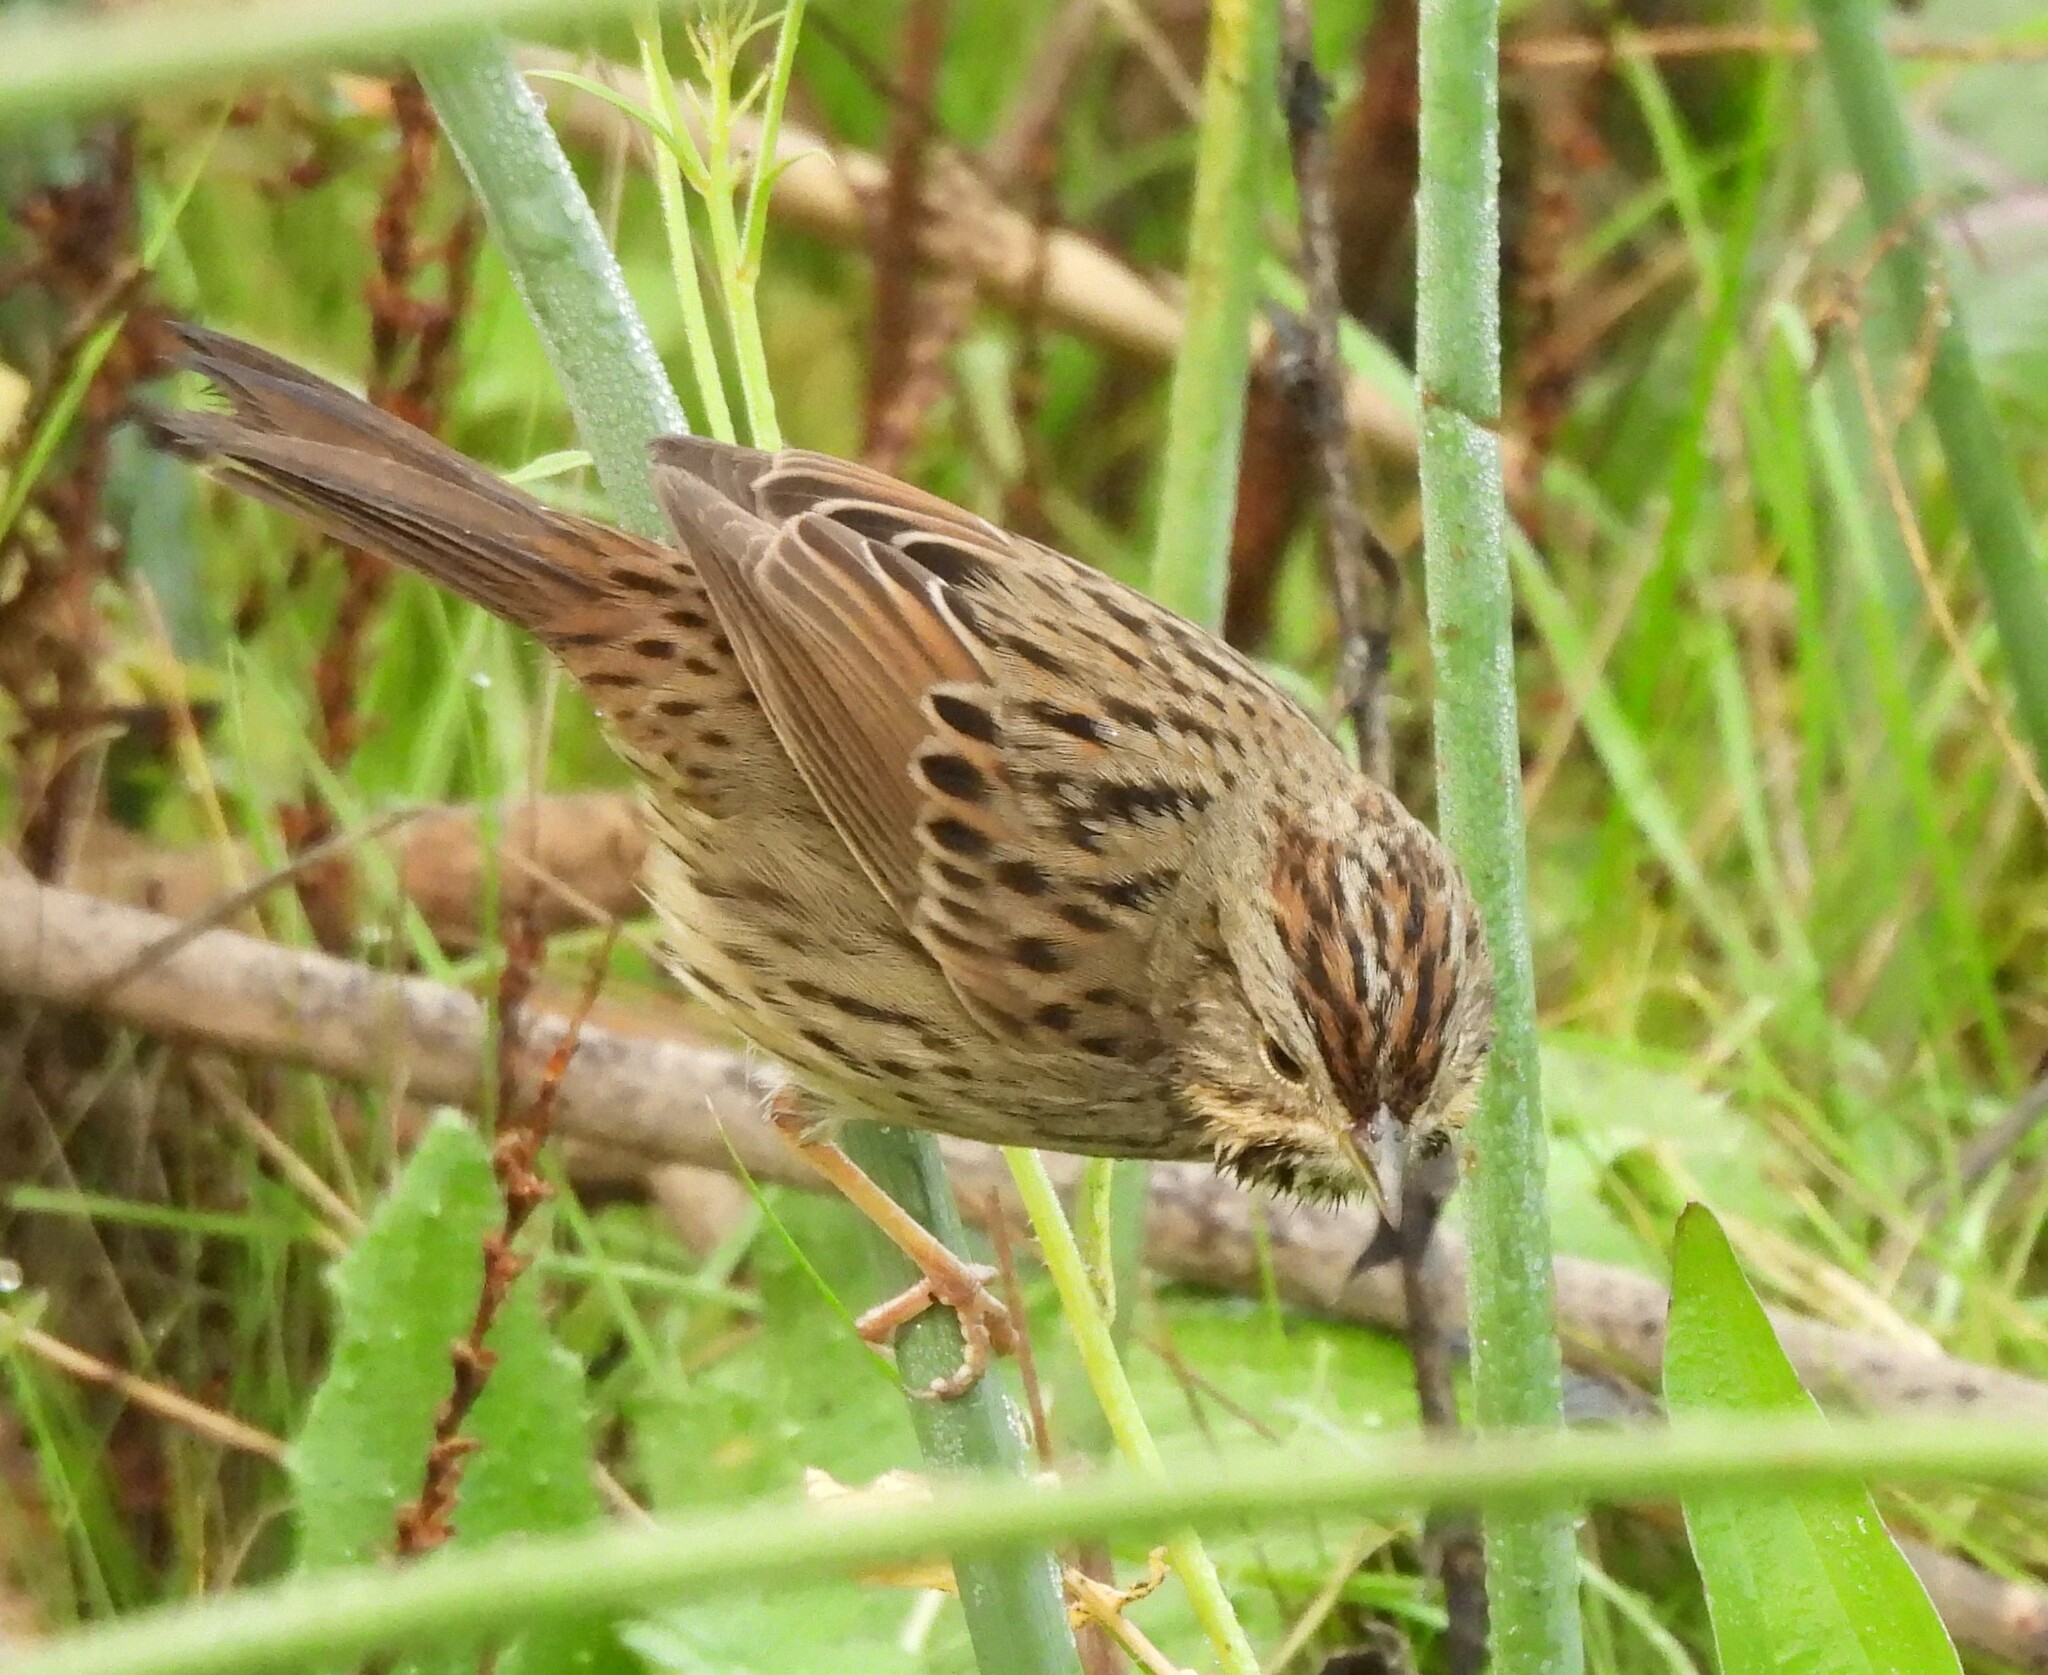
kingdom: Animalia
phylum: Chordata
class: Aves
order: Passeriformes
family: Passerellidae
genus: Melospiza
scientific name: Melospiza lincolnii
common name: Lincoln's sparrow
